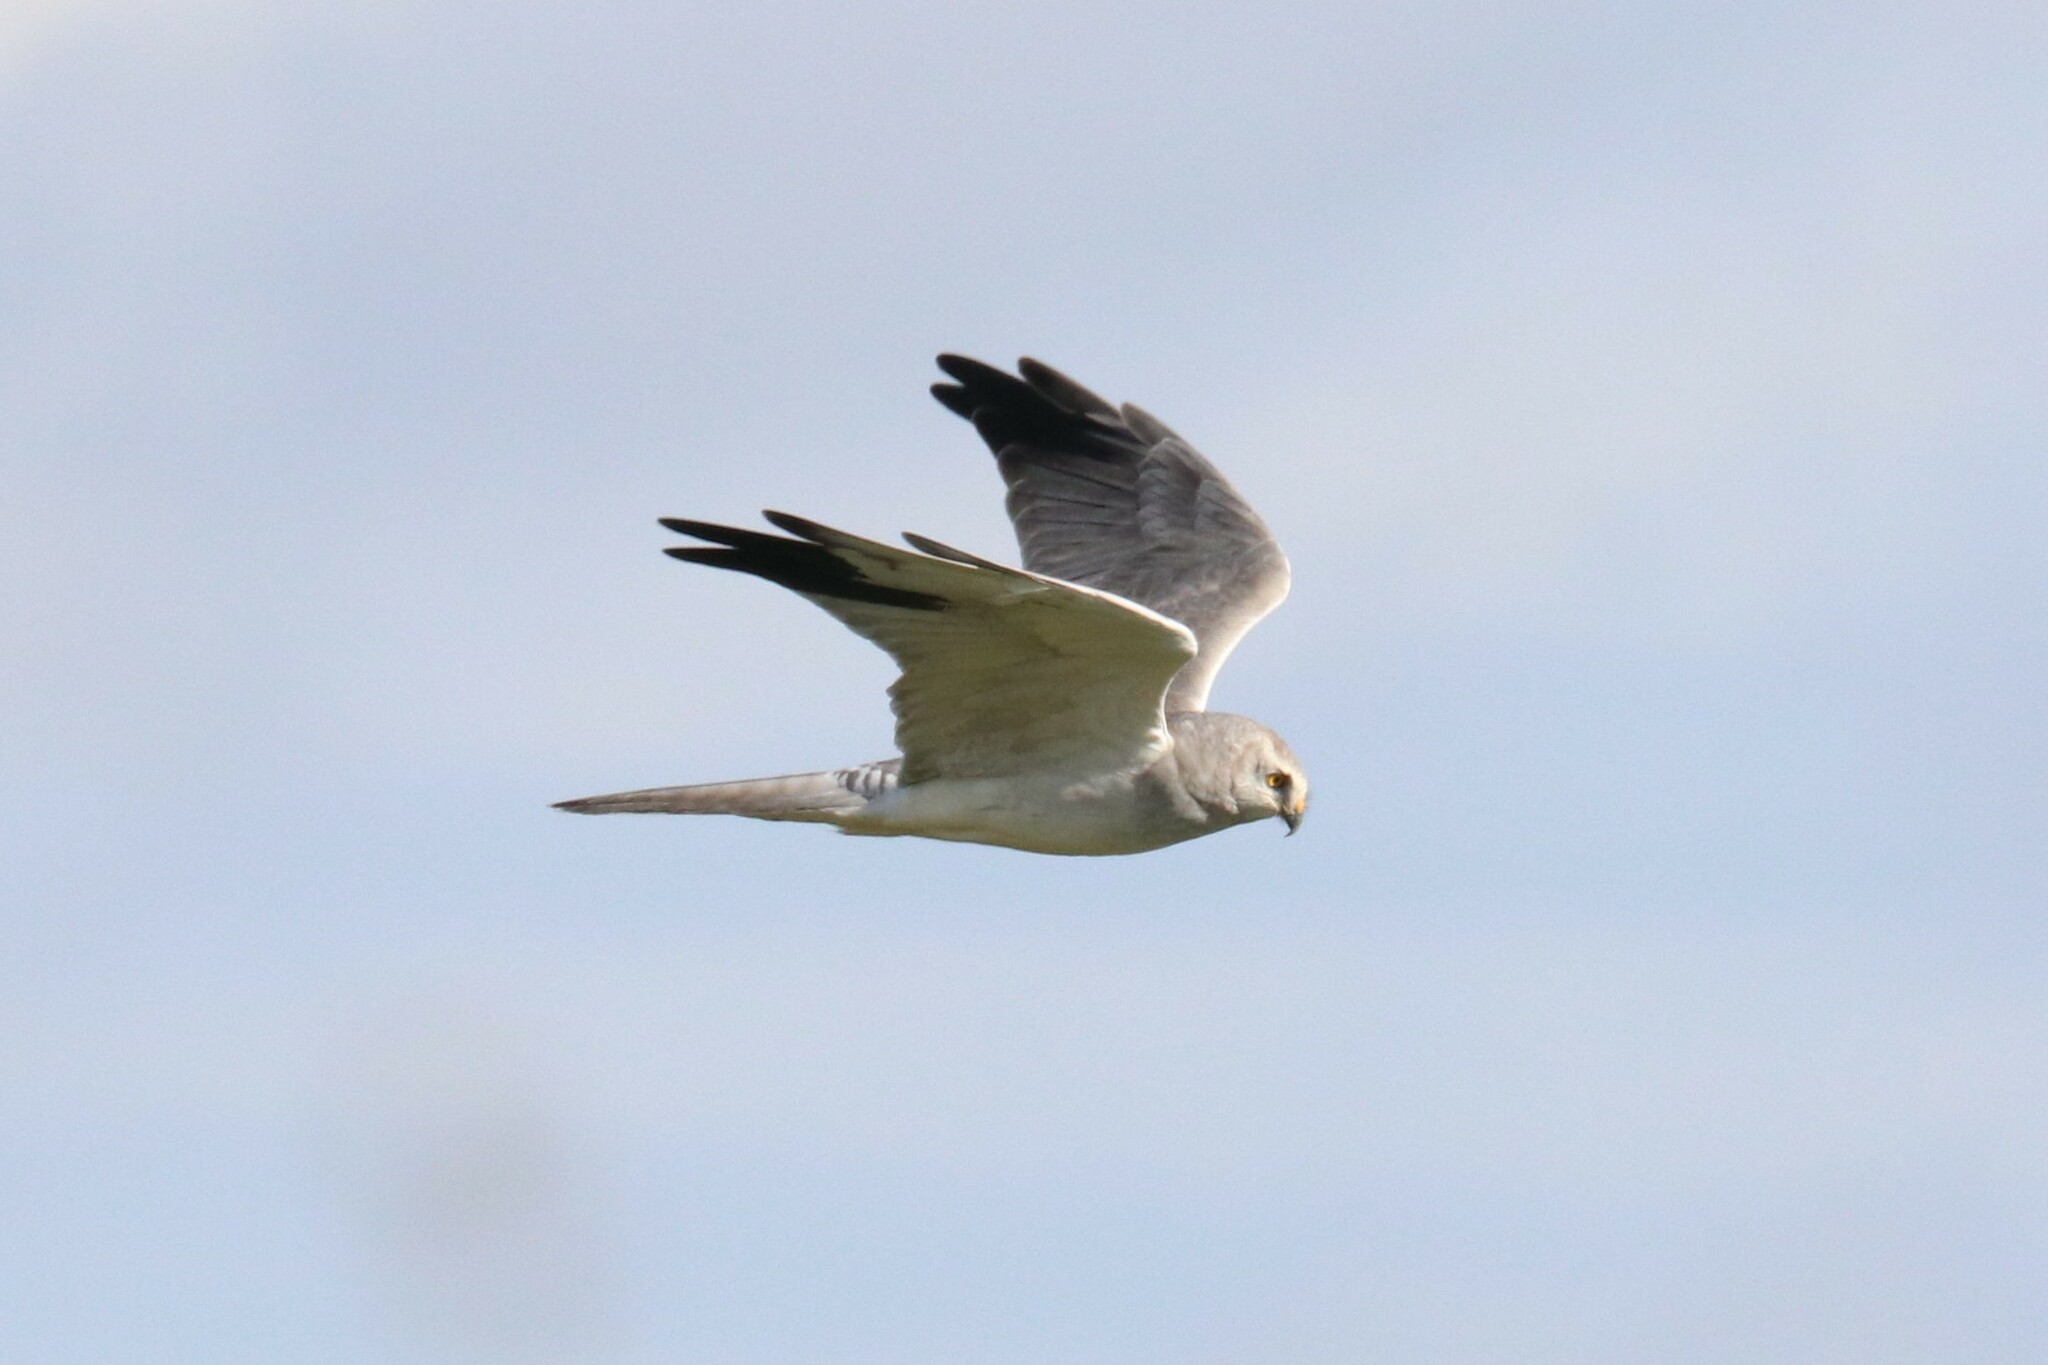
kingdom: Animalia
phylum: Chordata
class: Aves
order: Accipitriformes
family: Accipitridae
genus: Circus
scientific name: Circus macrourus
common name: Pallid harrier
